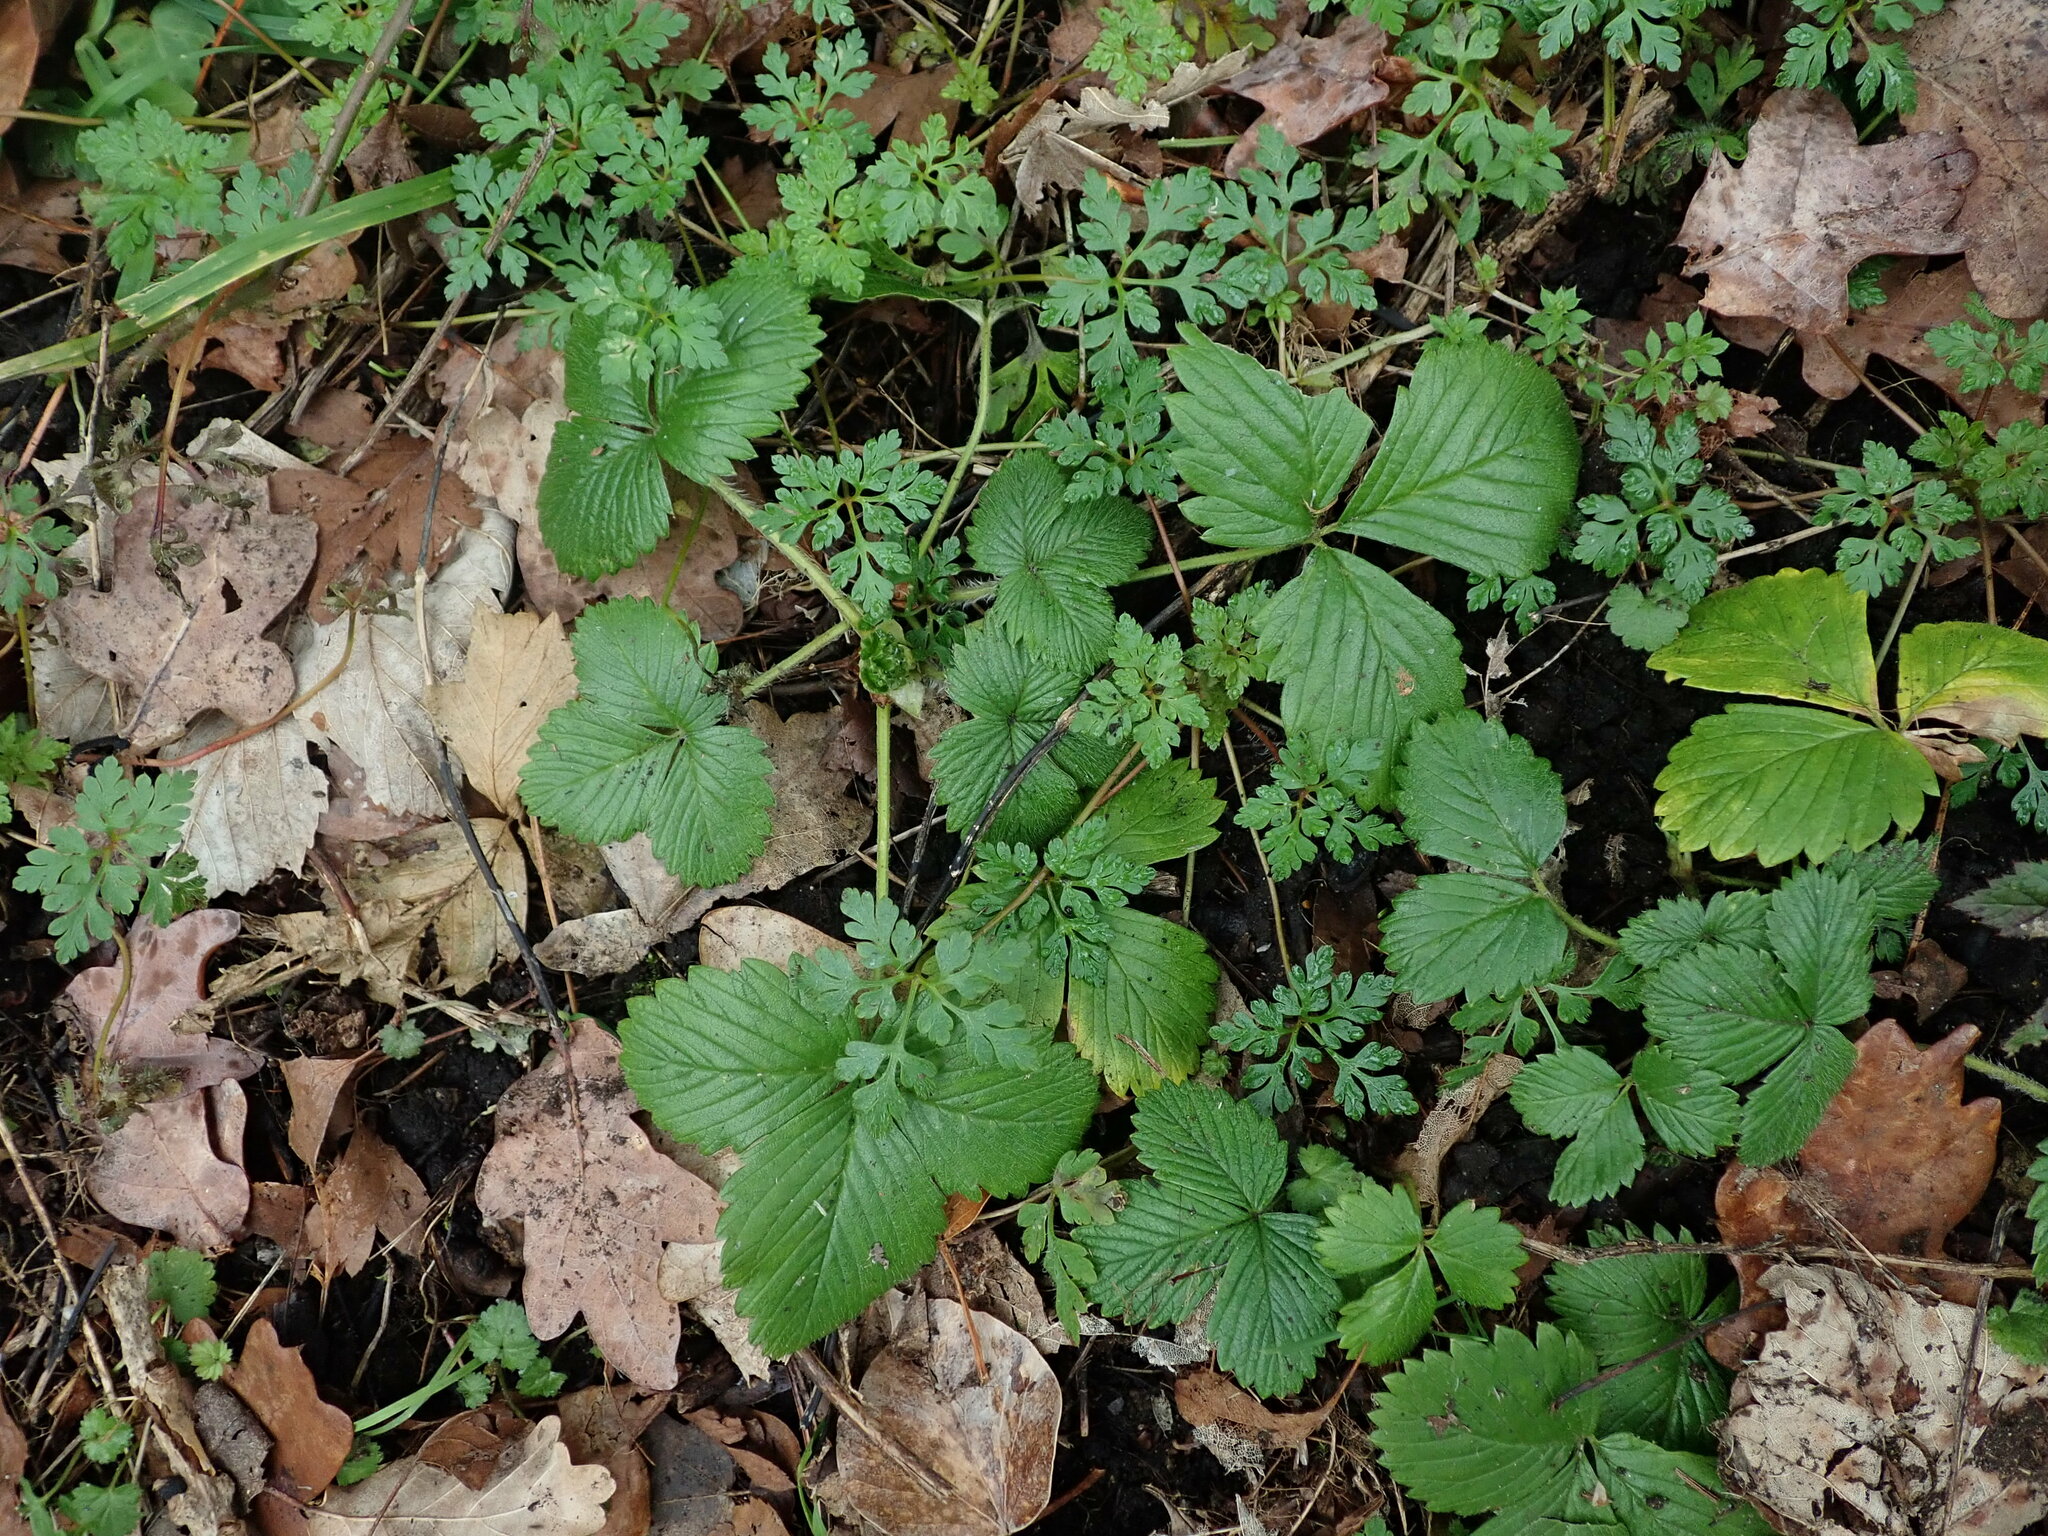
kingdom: Plantae
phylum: Tracheophyta
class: Magnoliopsida
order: Rosales
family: Rosaceae
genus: Fragaria
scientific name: Fragaria vesca
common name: Wild strawberry
